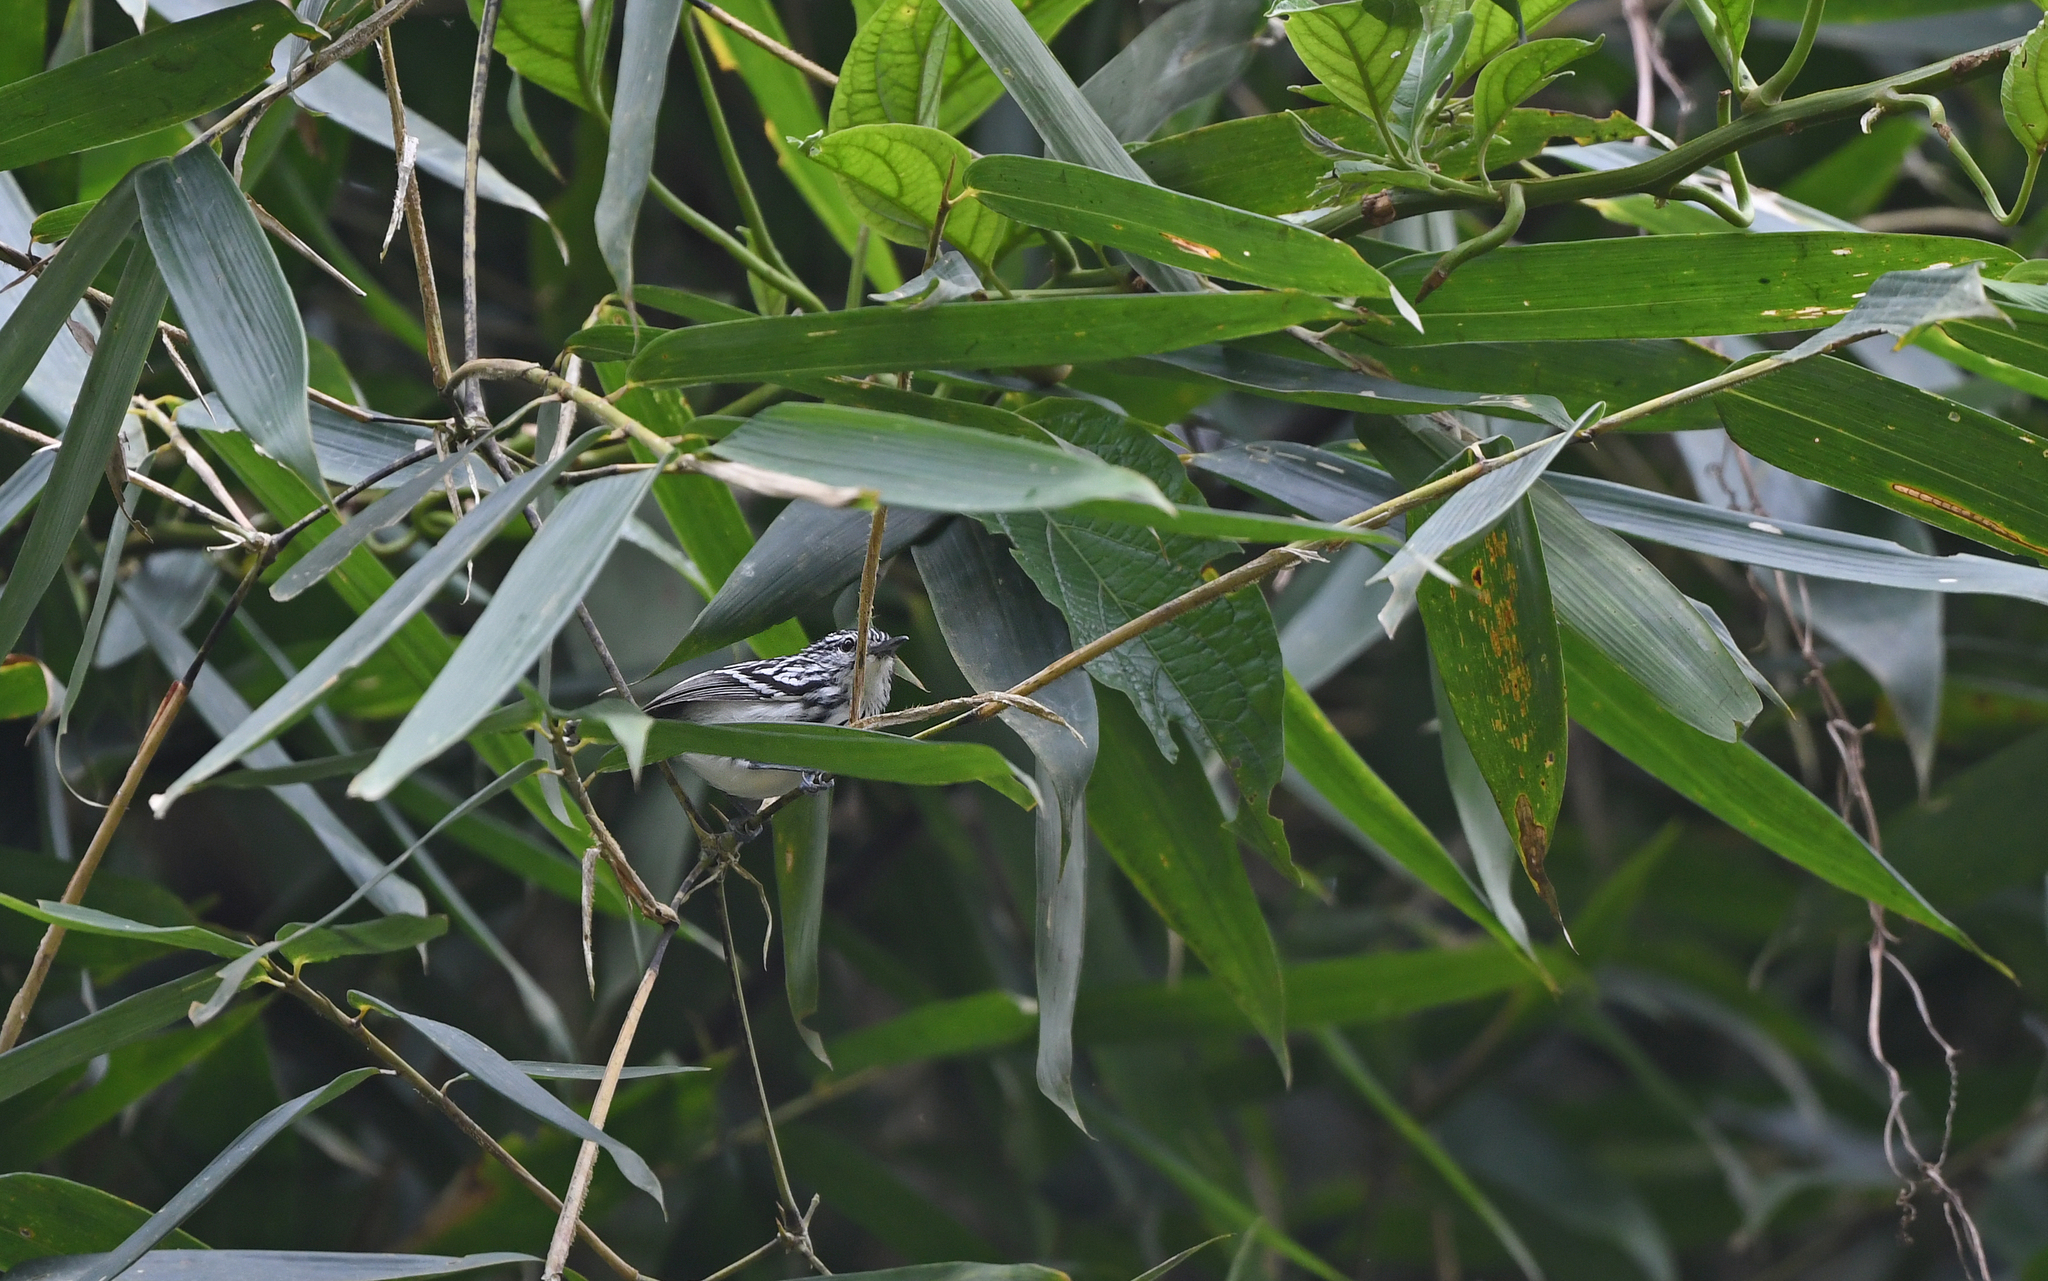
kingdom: Animalia
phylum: Chordata
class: Aves
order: Passeriformes
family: Thamnophilidae
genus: Myrmotherula
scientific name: Myrmotherula longicauda
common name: Stripe-chested antwren
